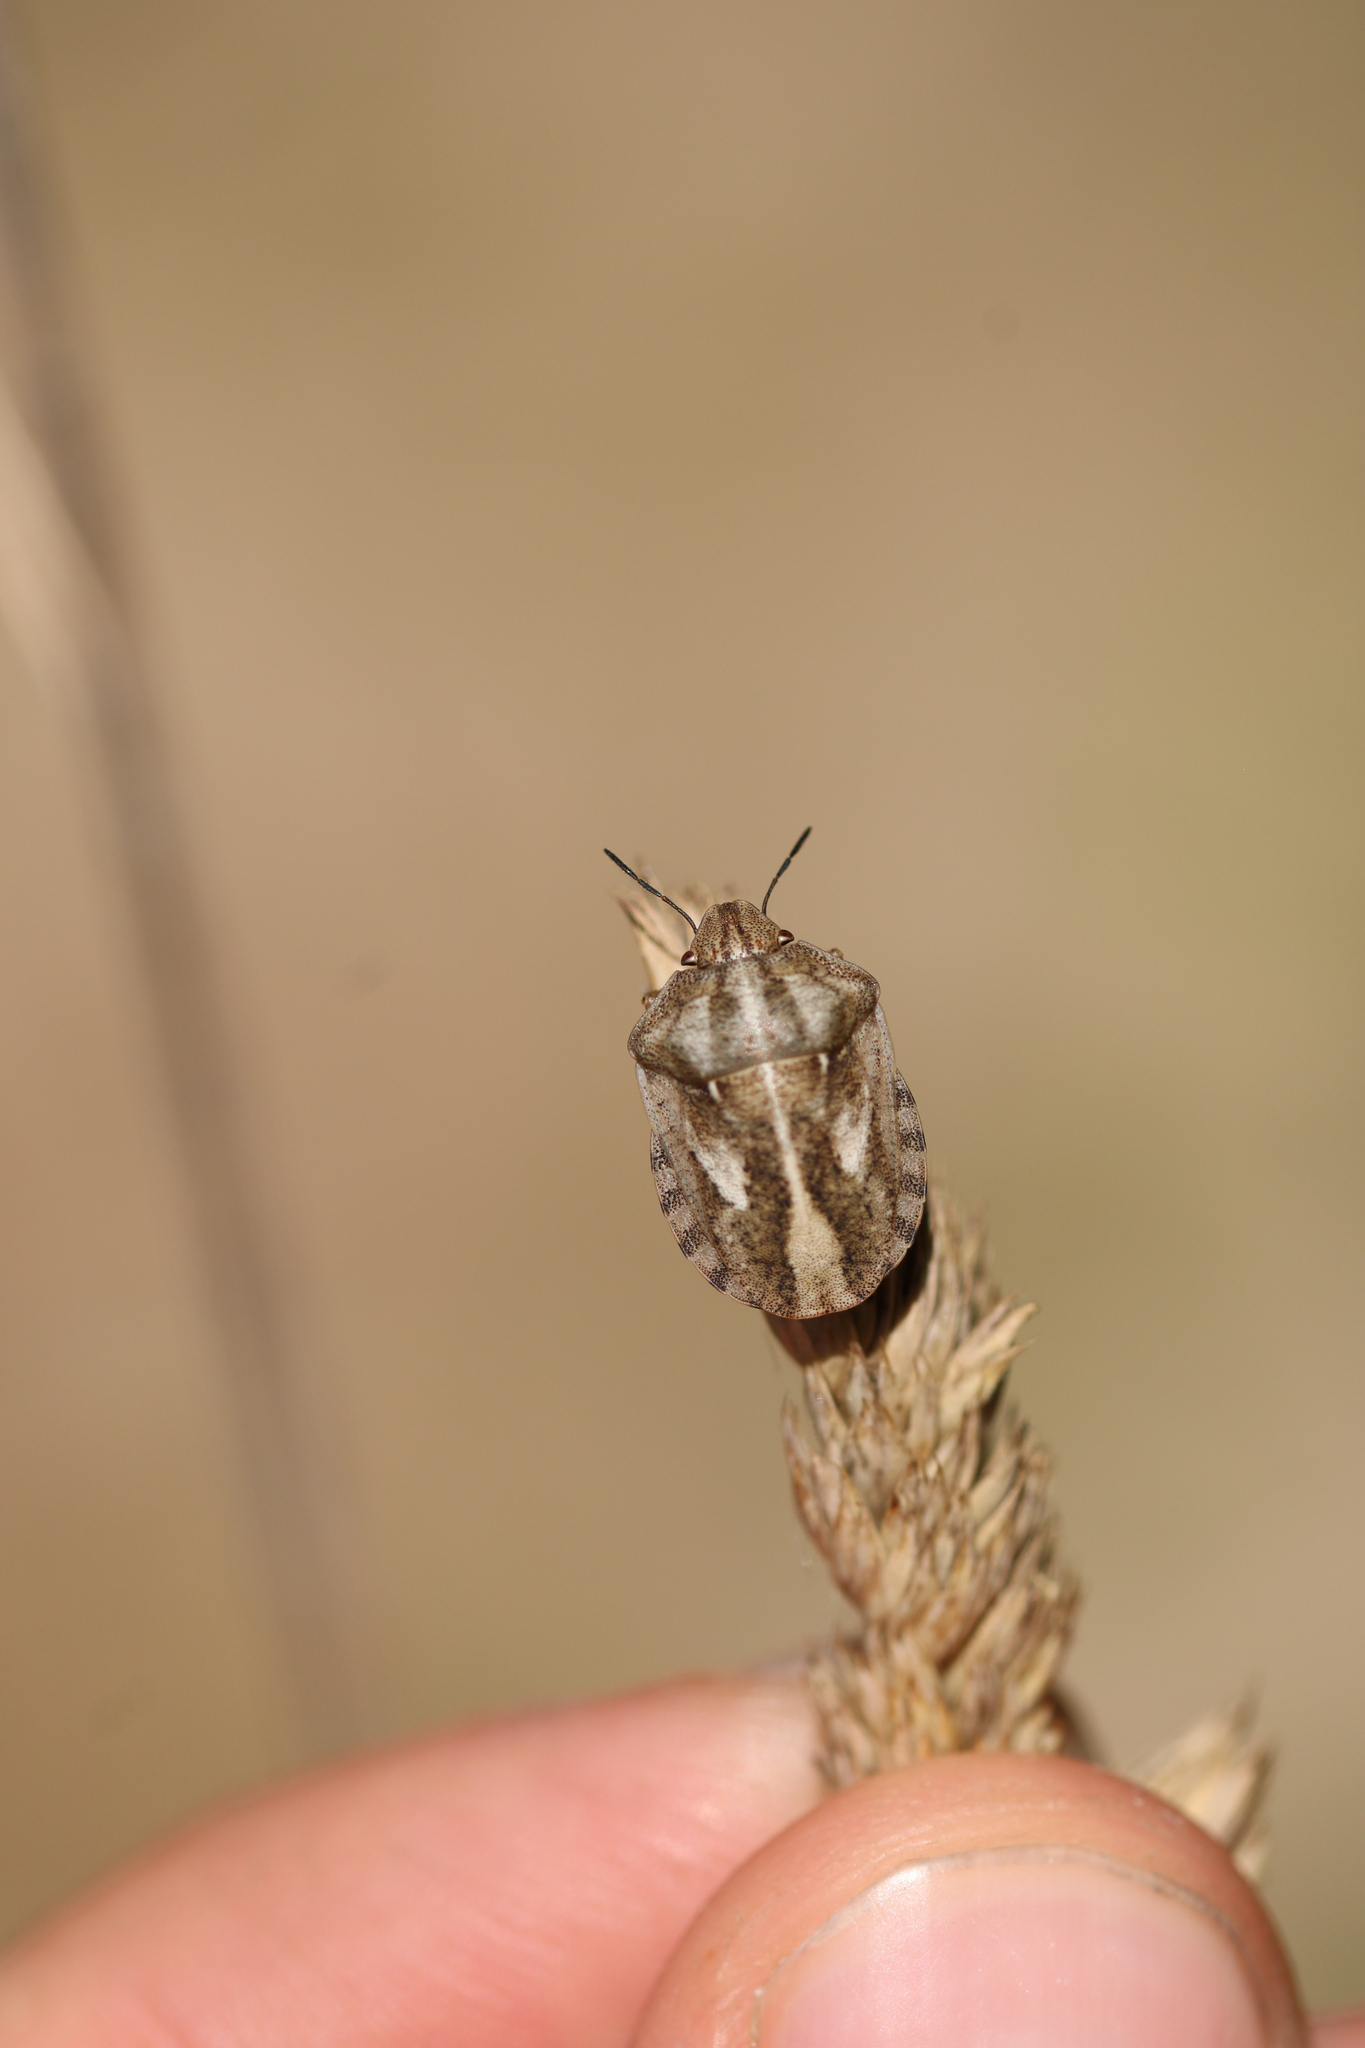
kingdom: Animalia
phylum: Arthropoda
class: Insecta
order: Hemiptera
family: Scutelleridae
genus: Eurygaster
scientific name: Eurygaster testudinaria
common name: Tortoise bug
